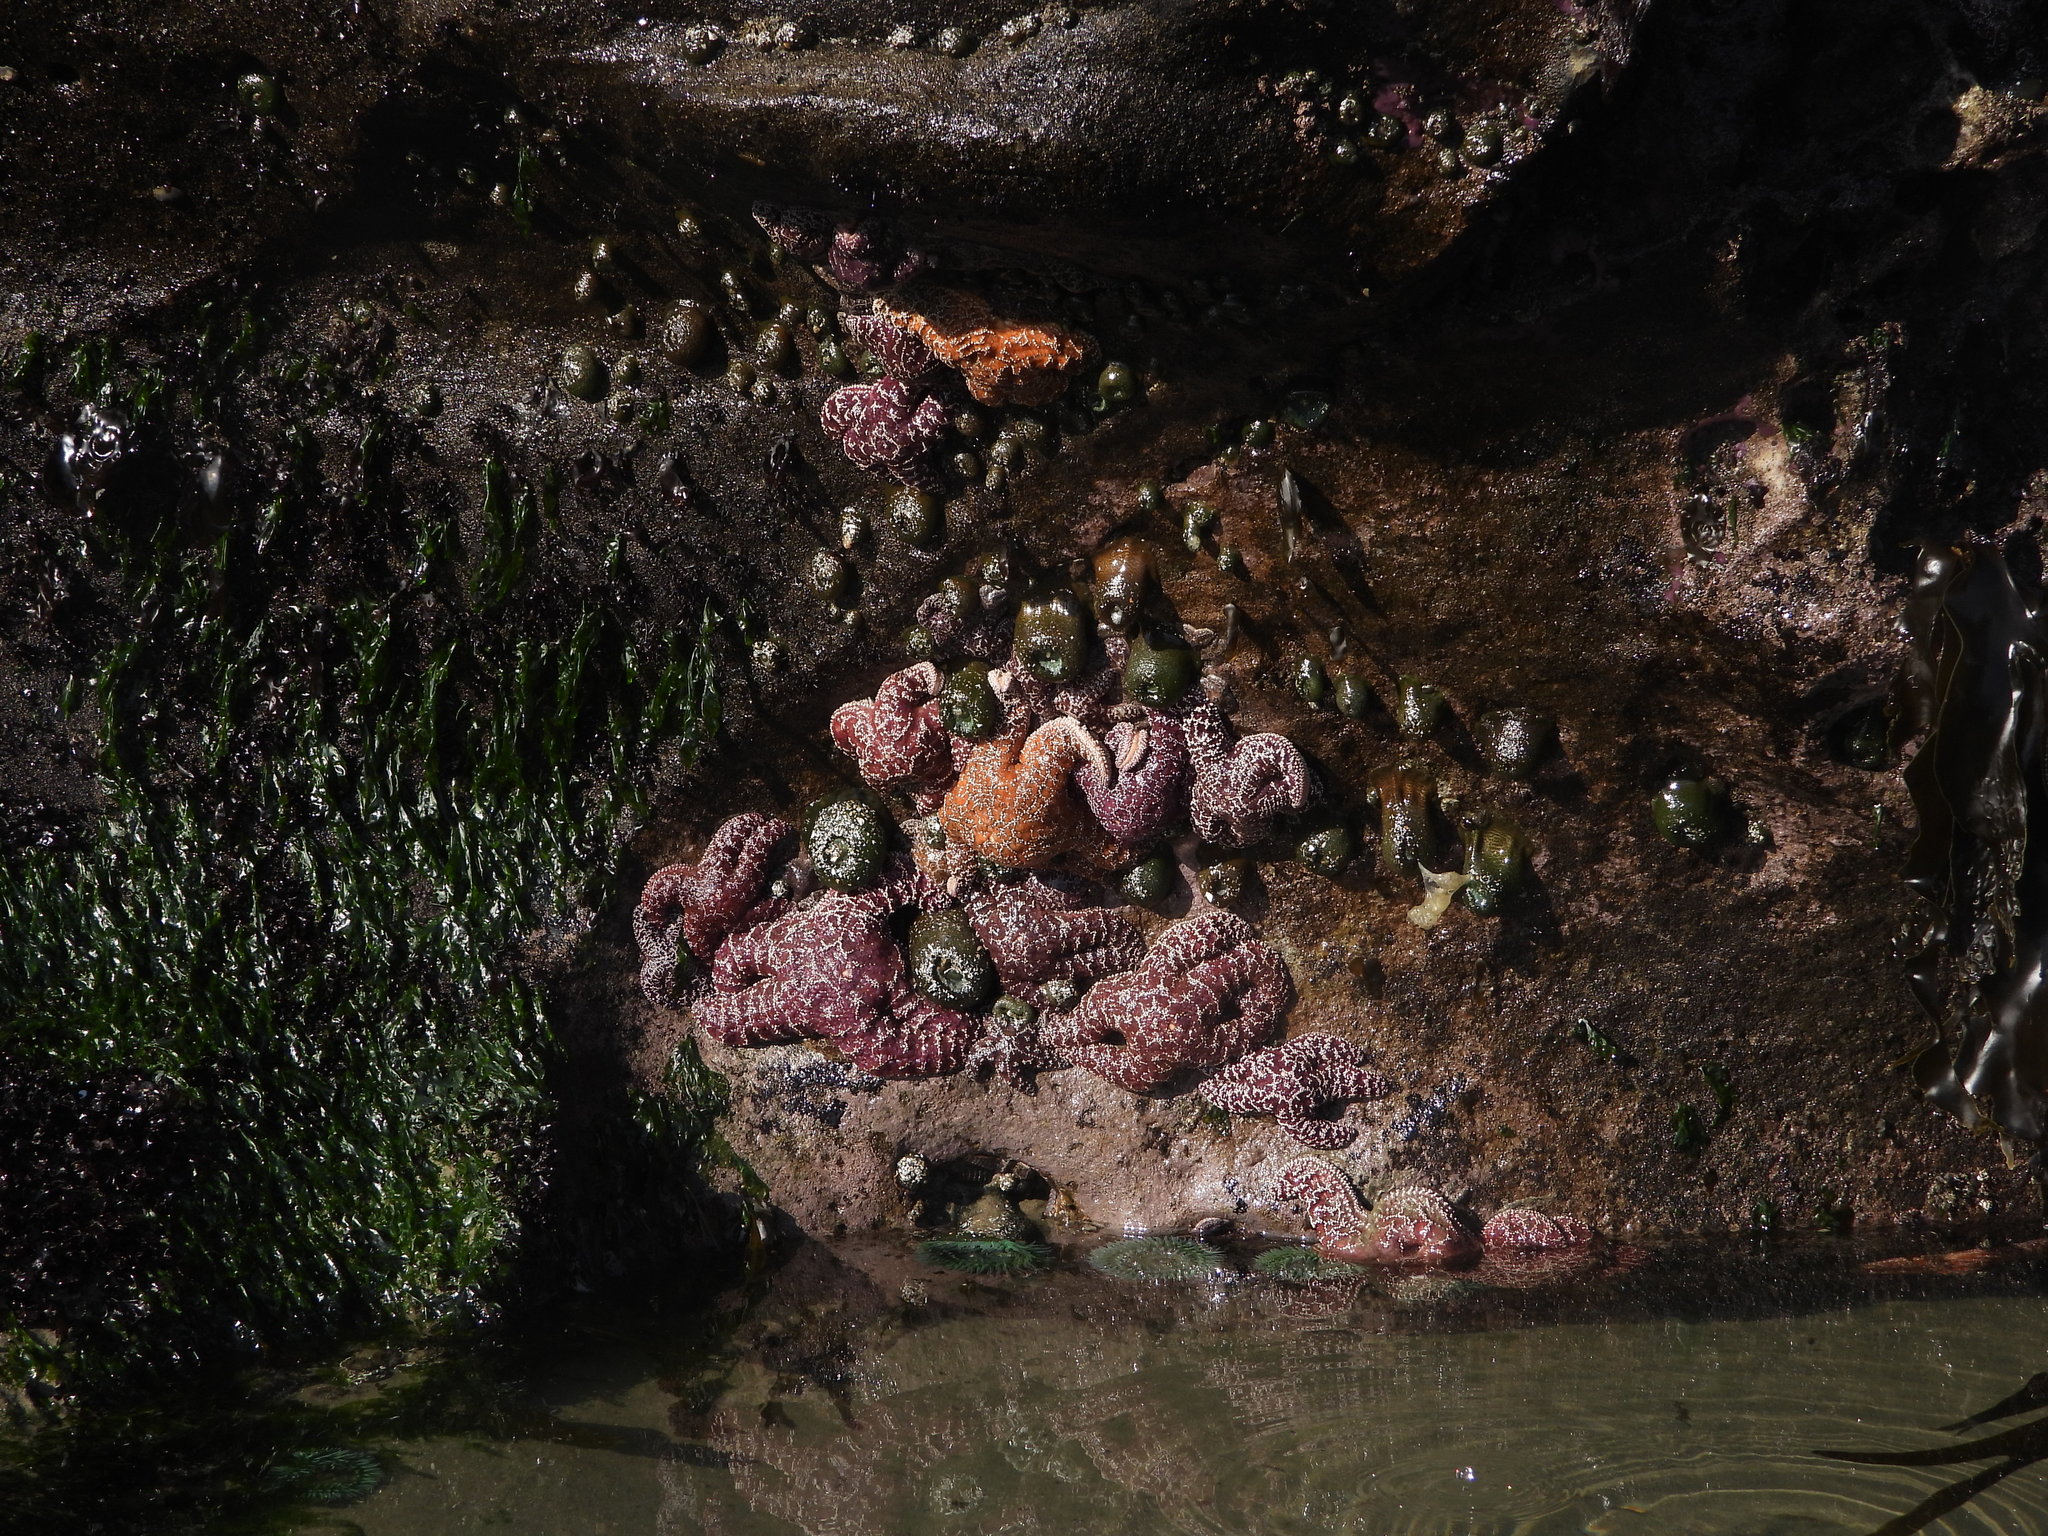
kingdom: Animalia
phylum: Echinodermata
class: Asteroidea
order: Forcipulatida
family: Asteriidae
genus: Pisaster
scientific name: Pisaster ochraceus
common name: Ochre stars
